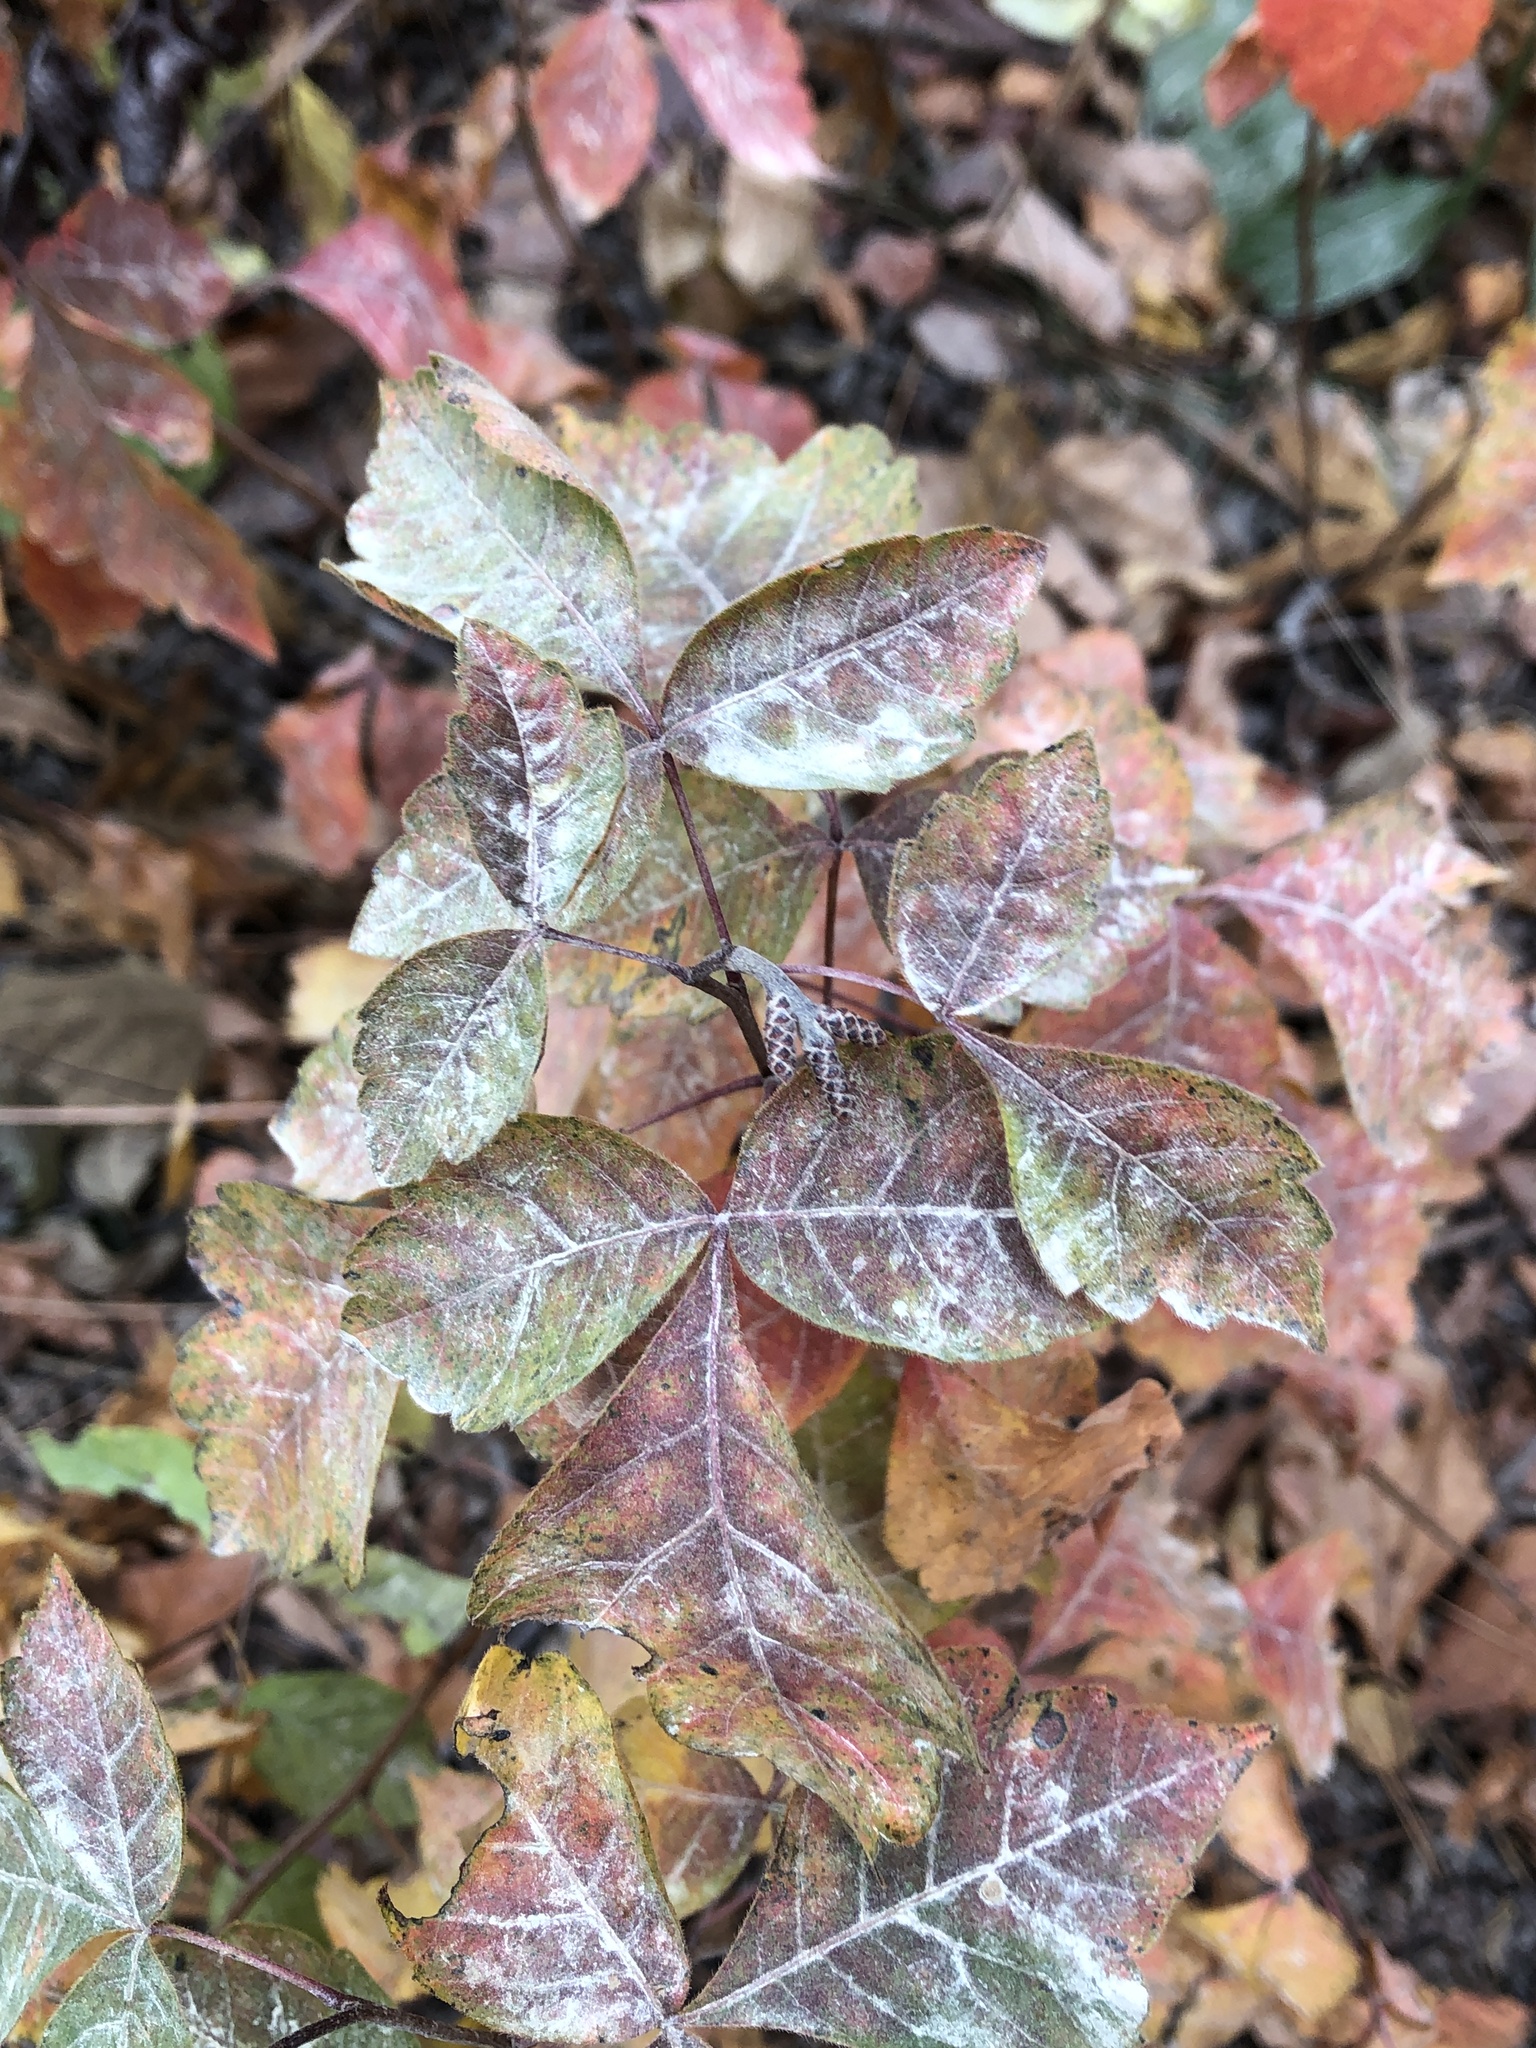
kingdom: Plantae
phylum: Tracheophyta
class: Magnoliopsida
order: Sapindales
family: Anacardiaceae
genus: Rhus
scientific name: Rhus aromatica
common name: Aromatic sumac
